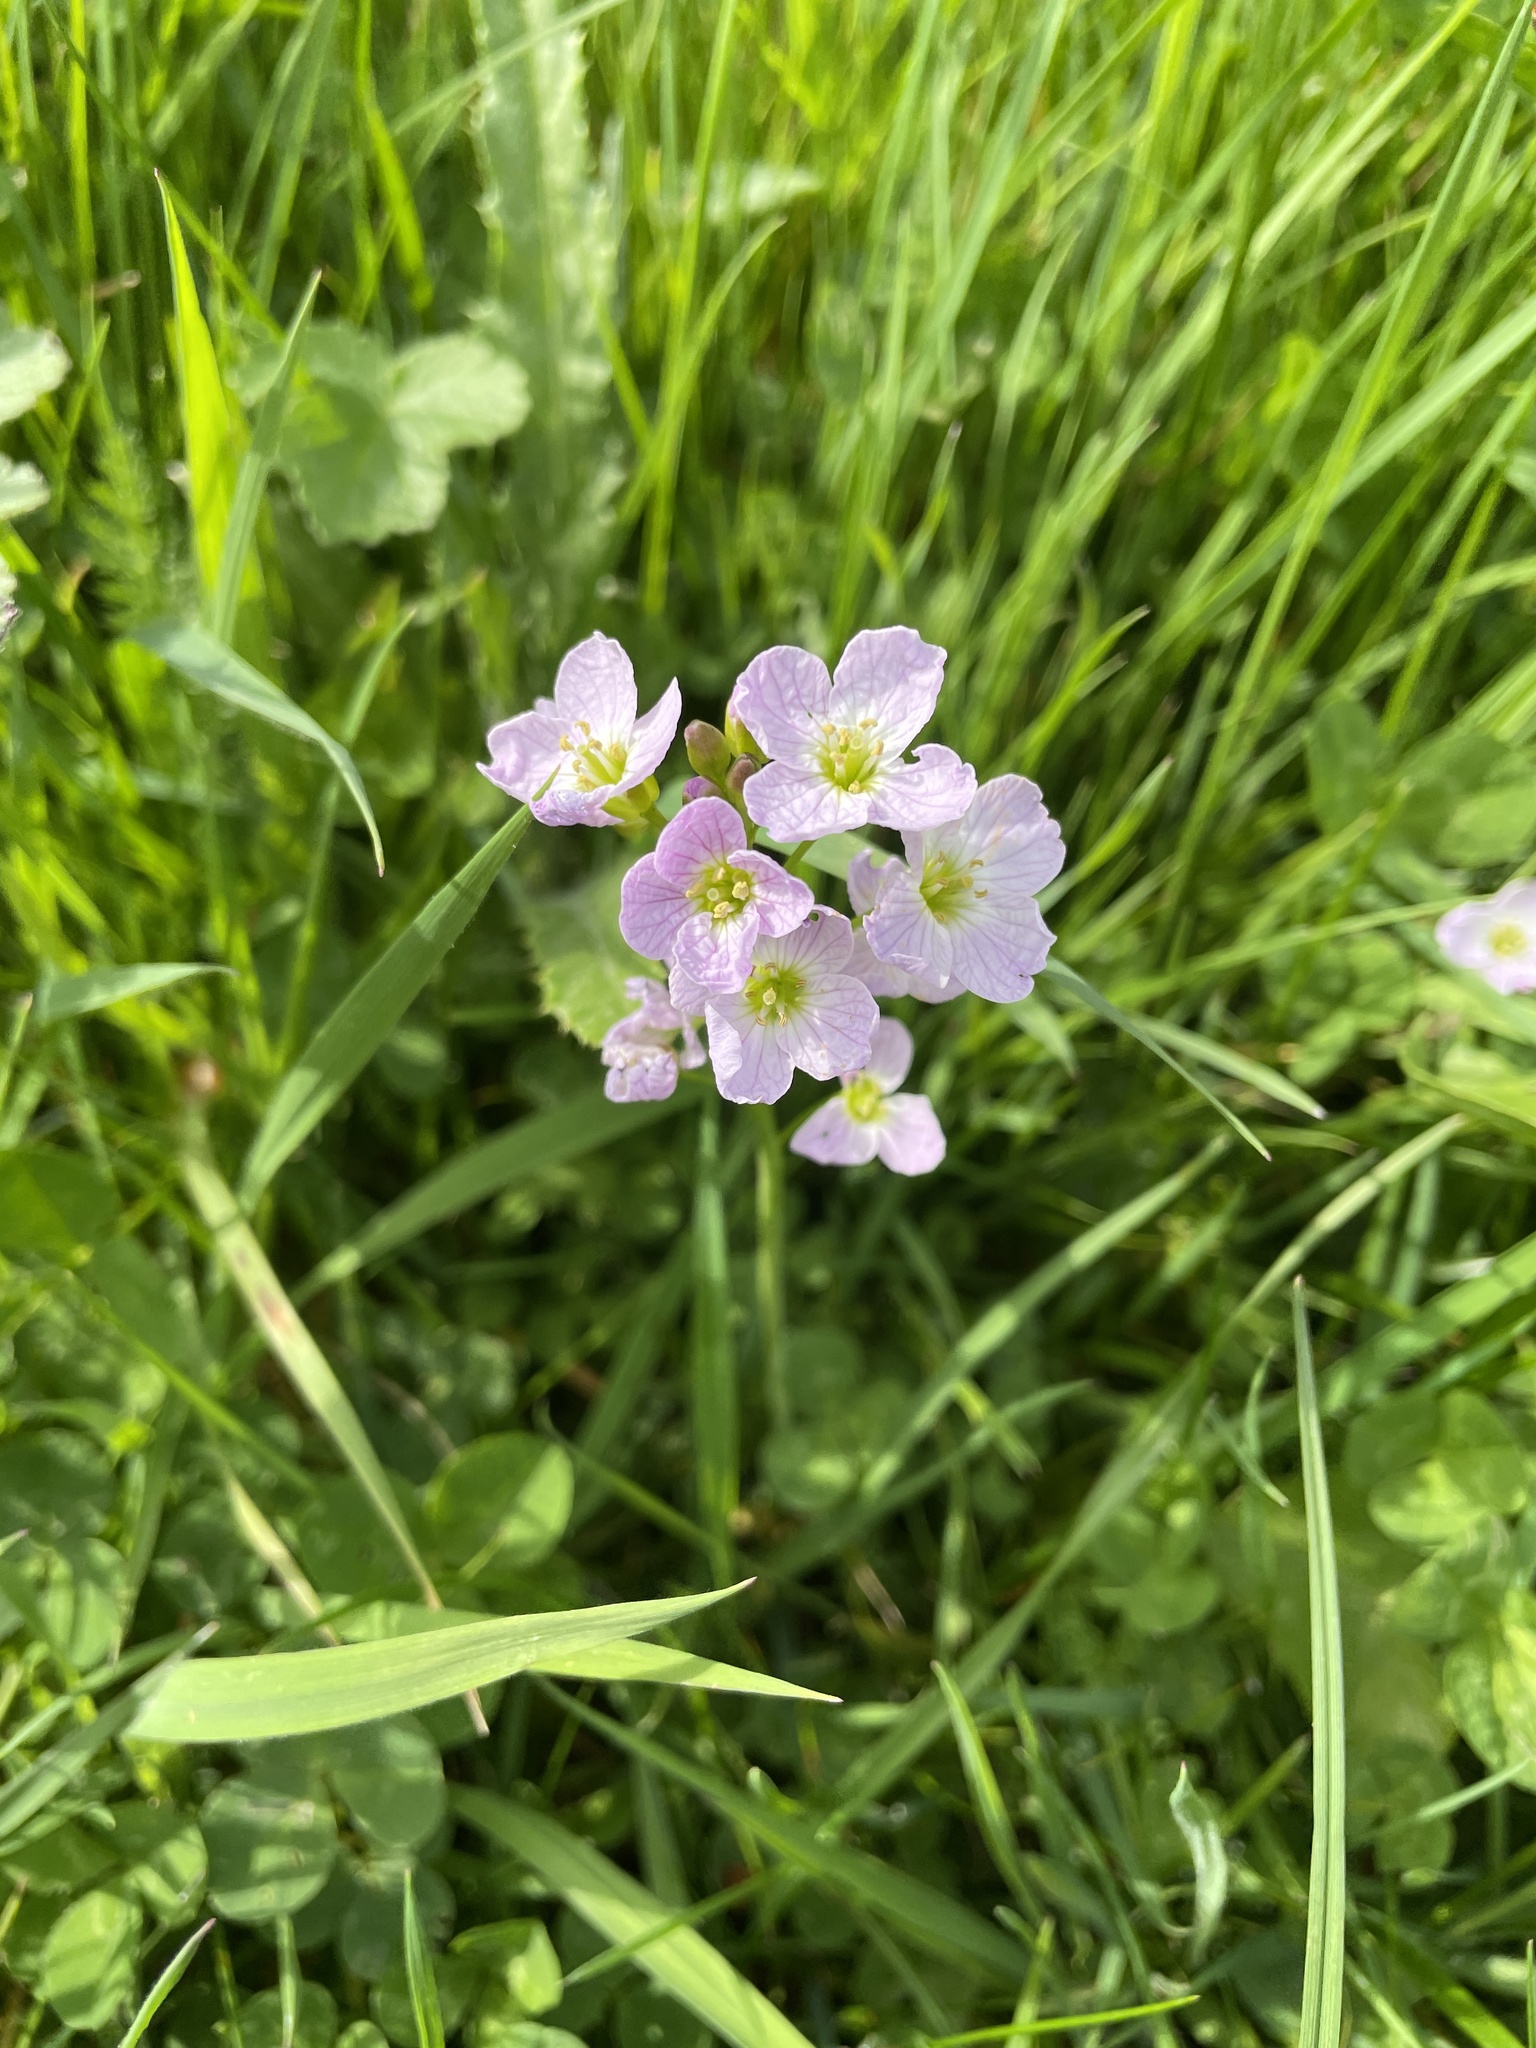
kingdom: Plantae
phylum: Tracheophyta
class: Magnoliopsida
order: Brassicales
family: Brassicaceae
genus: Cardamine
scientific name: Cardamine pratensis
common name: Cuckoo flower
